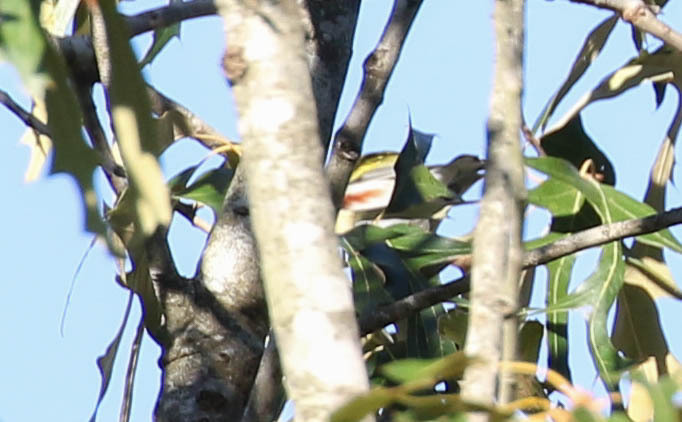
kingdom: Animalia
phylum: Chordata
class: Aves
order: Passeriformes
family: Parulidae
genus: Setophaga
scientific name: Setophaga pensylvanica
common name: Chestnut-sided warbler
